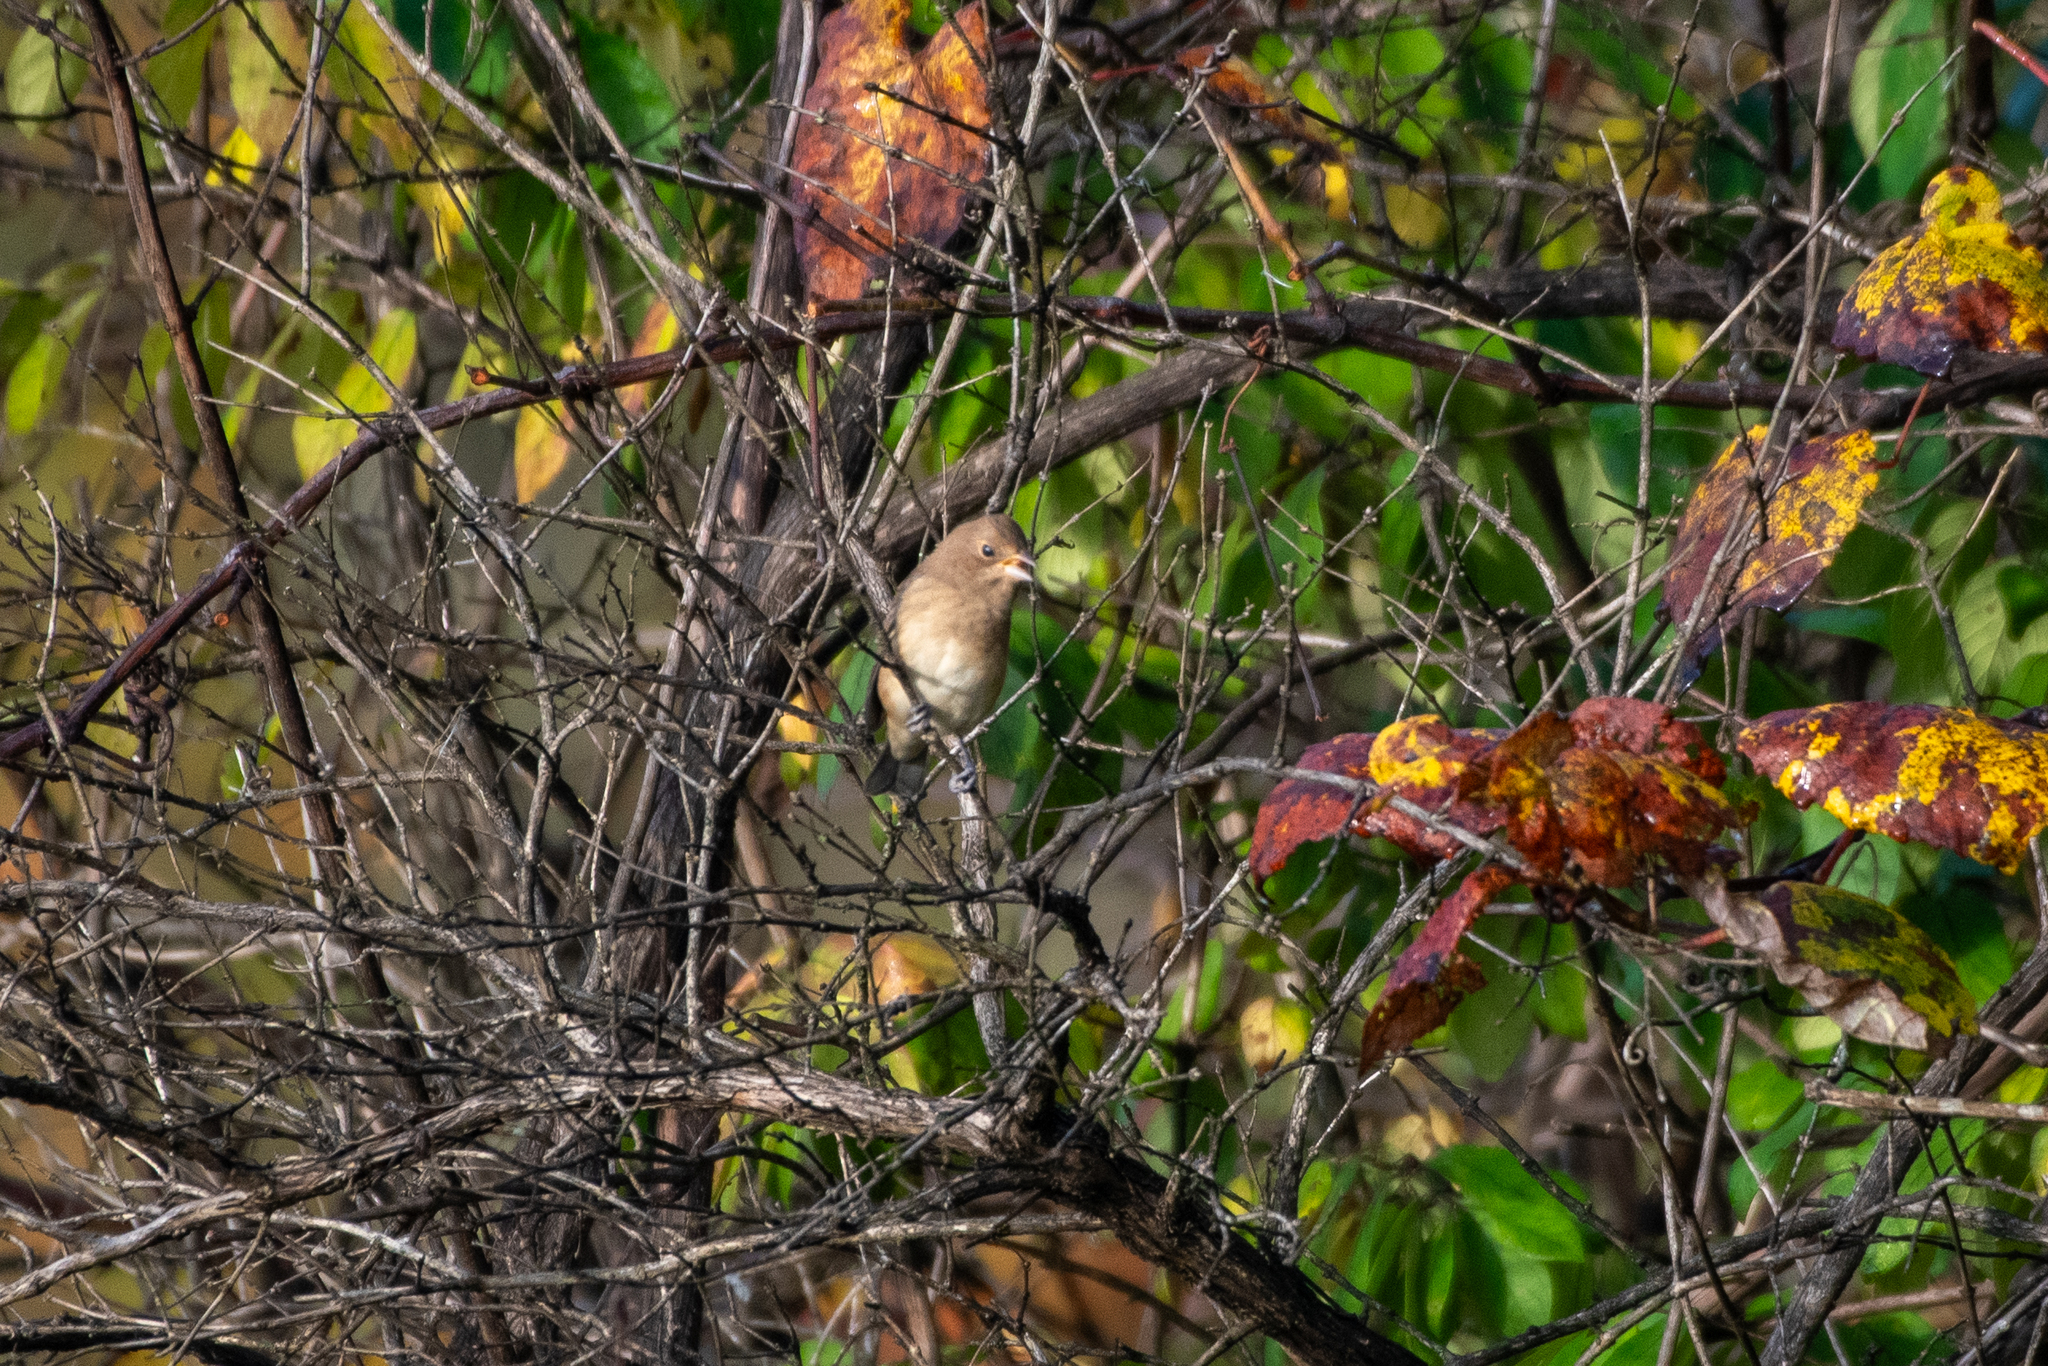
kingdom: Animalia
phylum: Chordata
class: Aves
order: Passeriformes
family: Cardinalidae
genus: Passerina
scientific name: Passerina cyanea
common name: Indigo bunting
